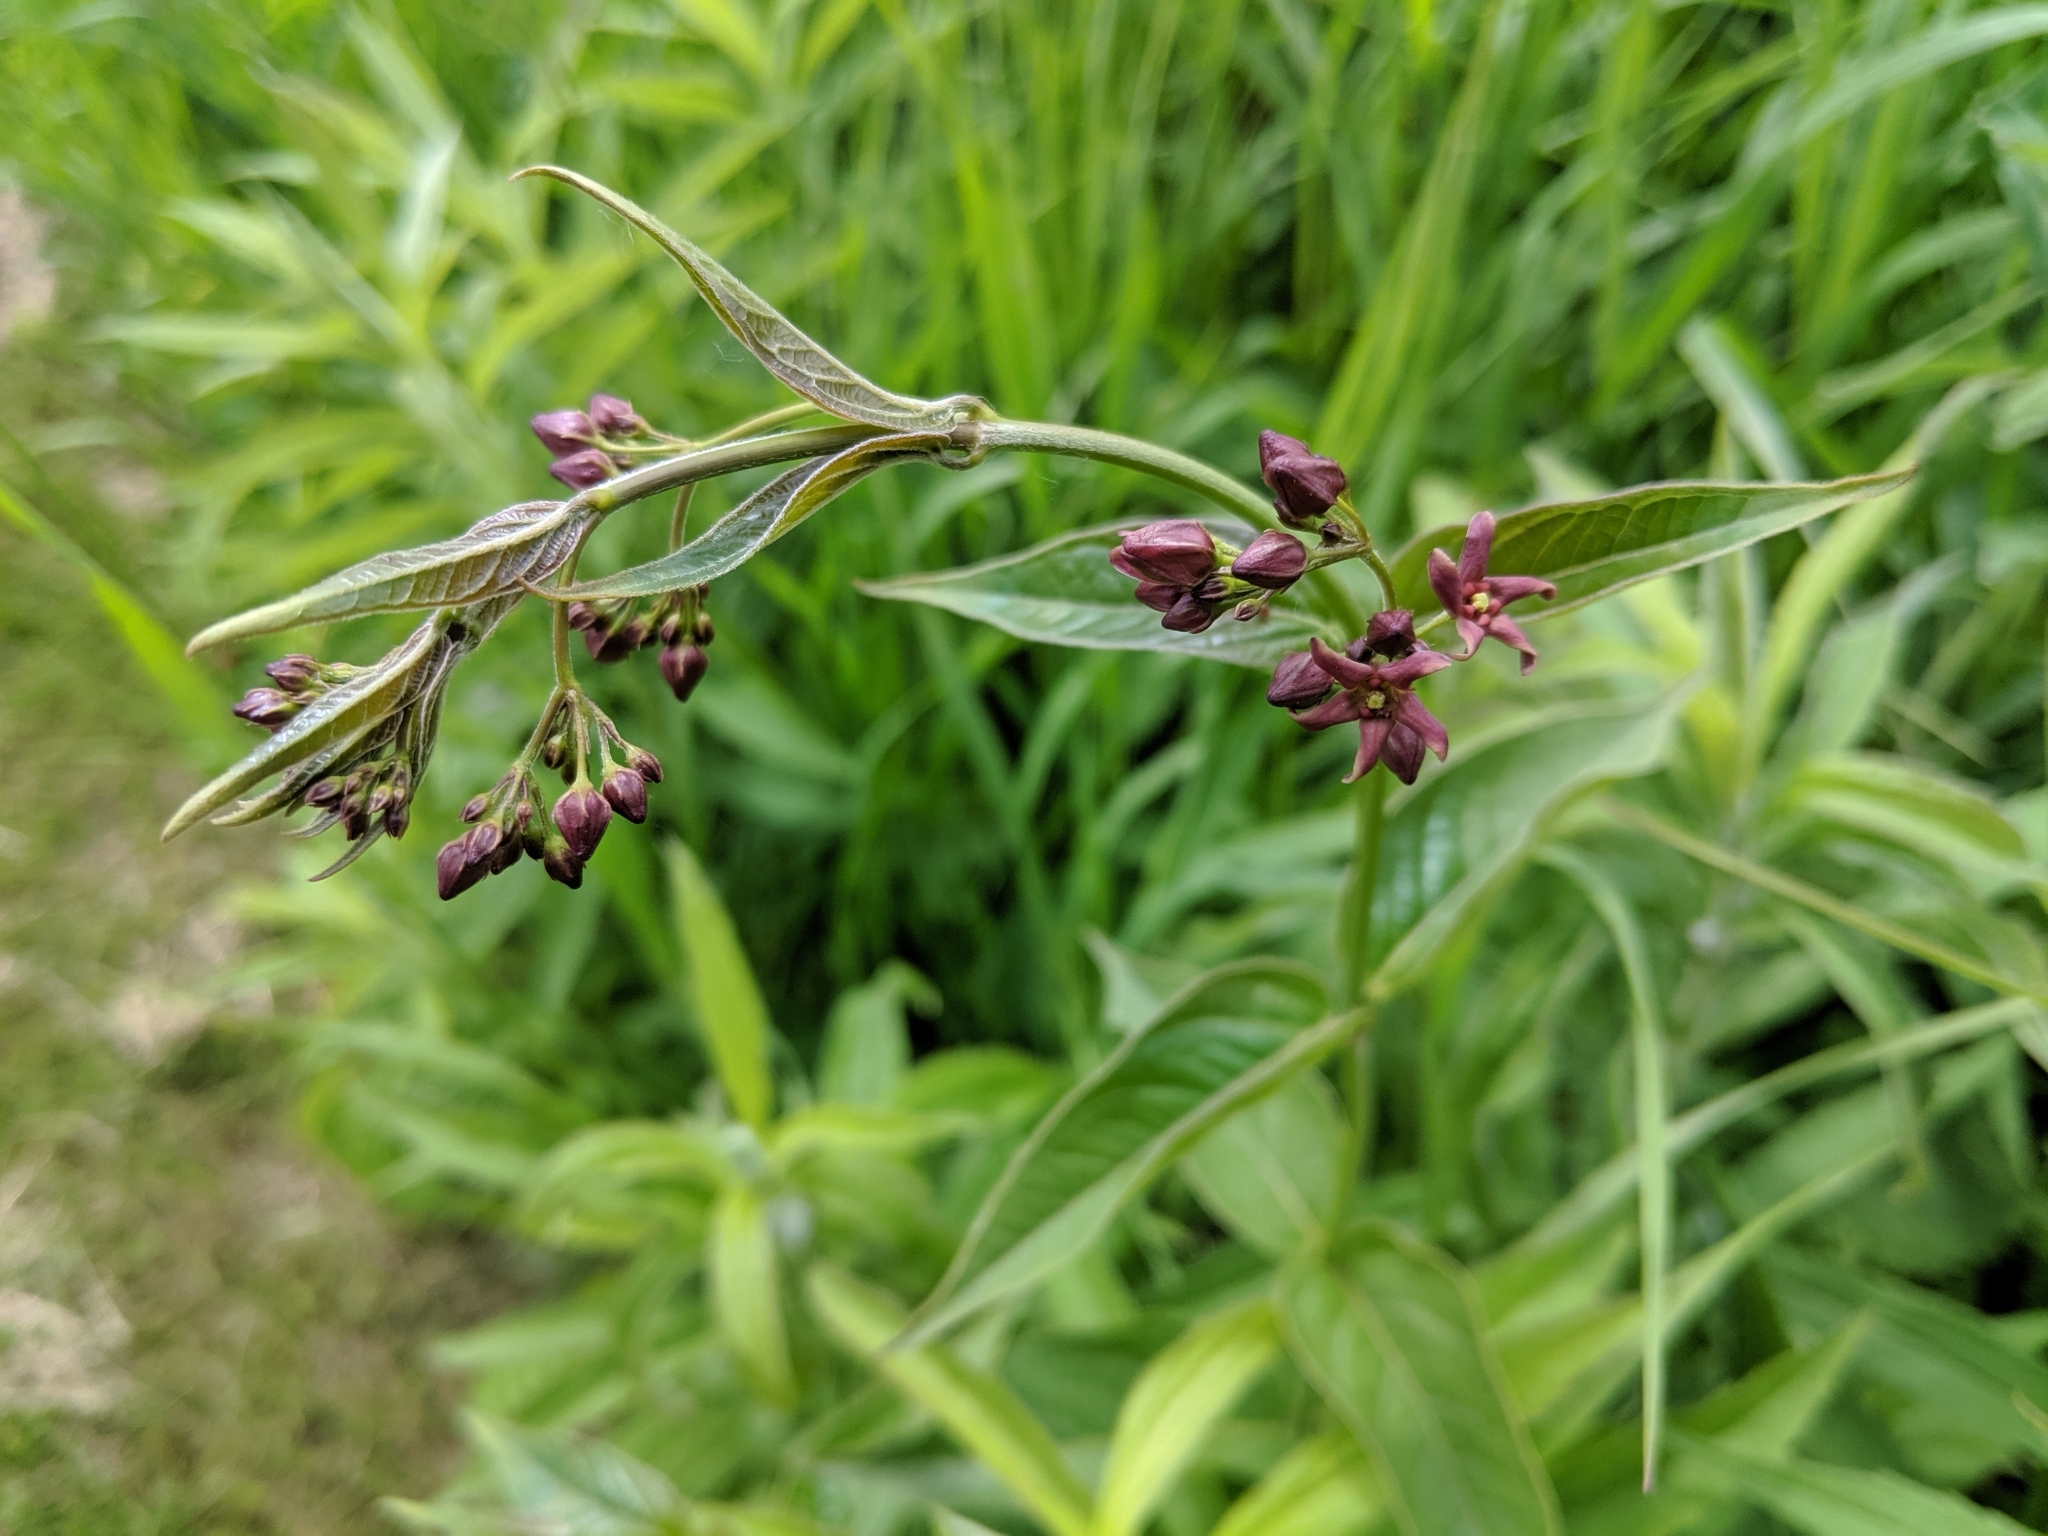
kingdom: Plantae
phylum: Tracheophyta
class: Magnoliopsida
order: Gentianales
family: Apocynaceae
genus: Vincetoxicum
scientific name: Vincetoxicum rossicum
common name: Dog-strangling vine
